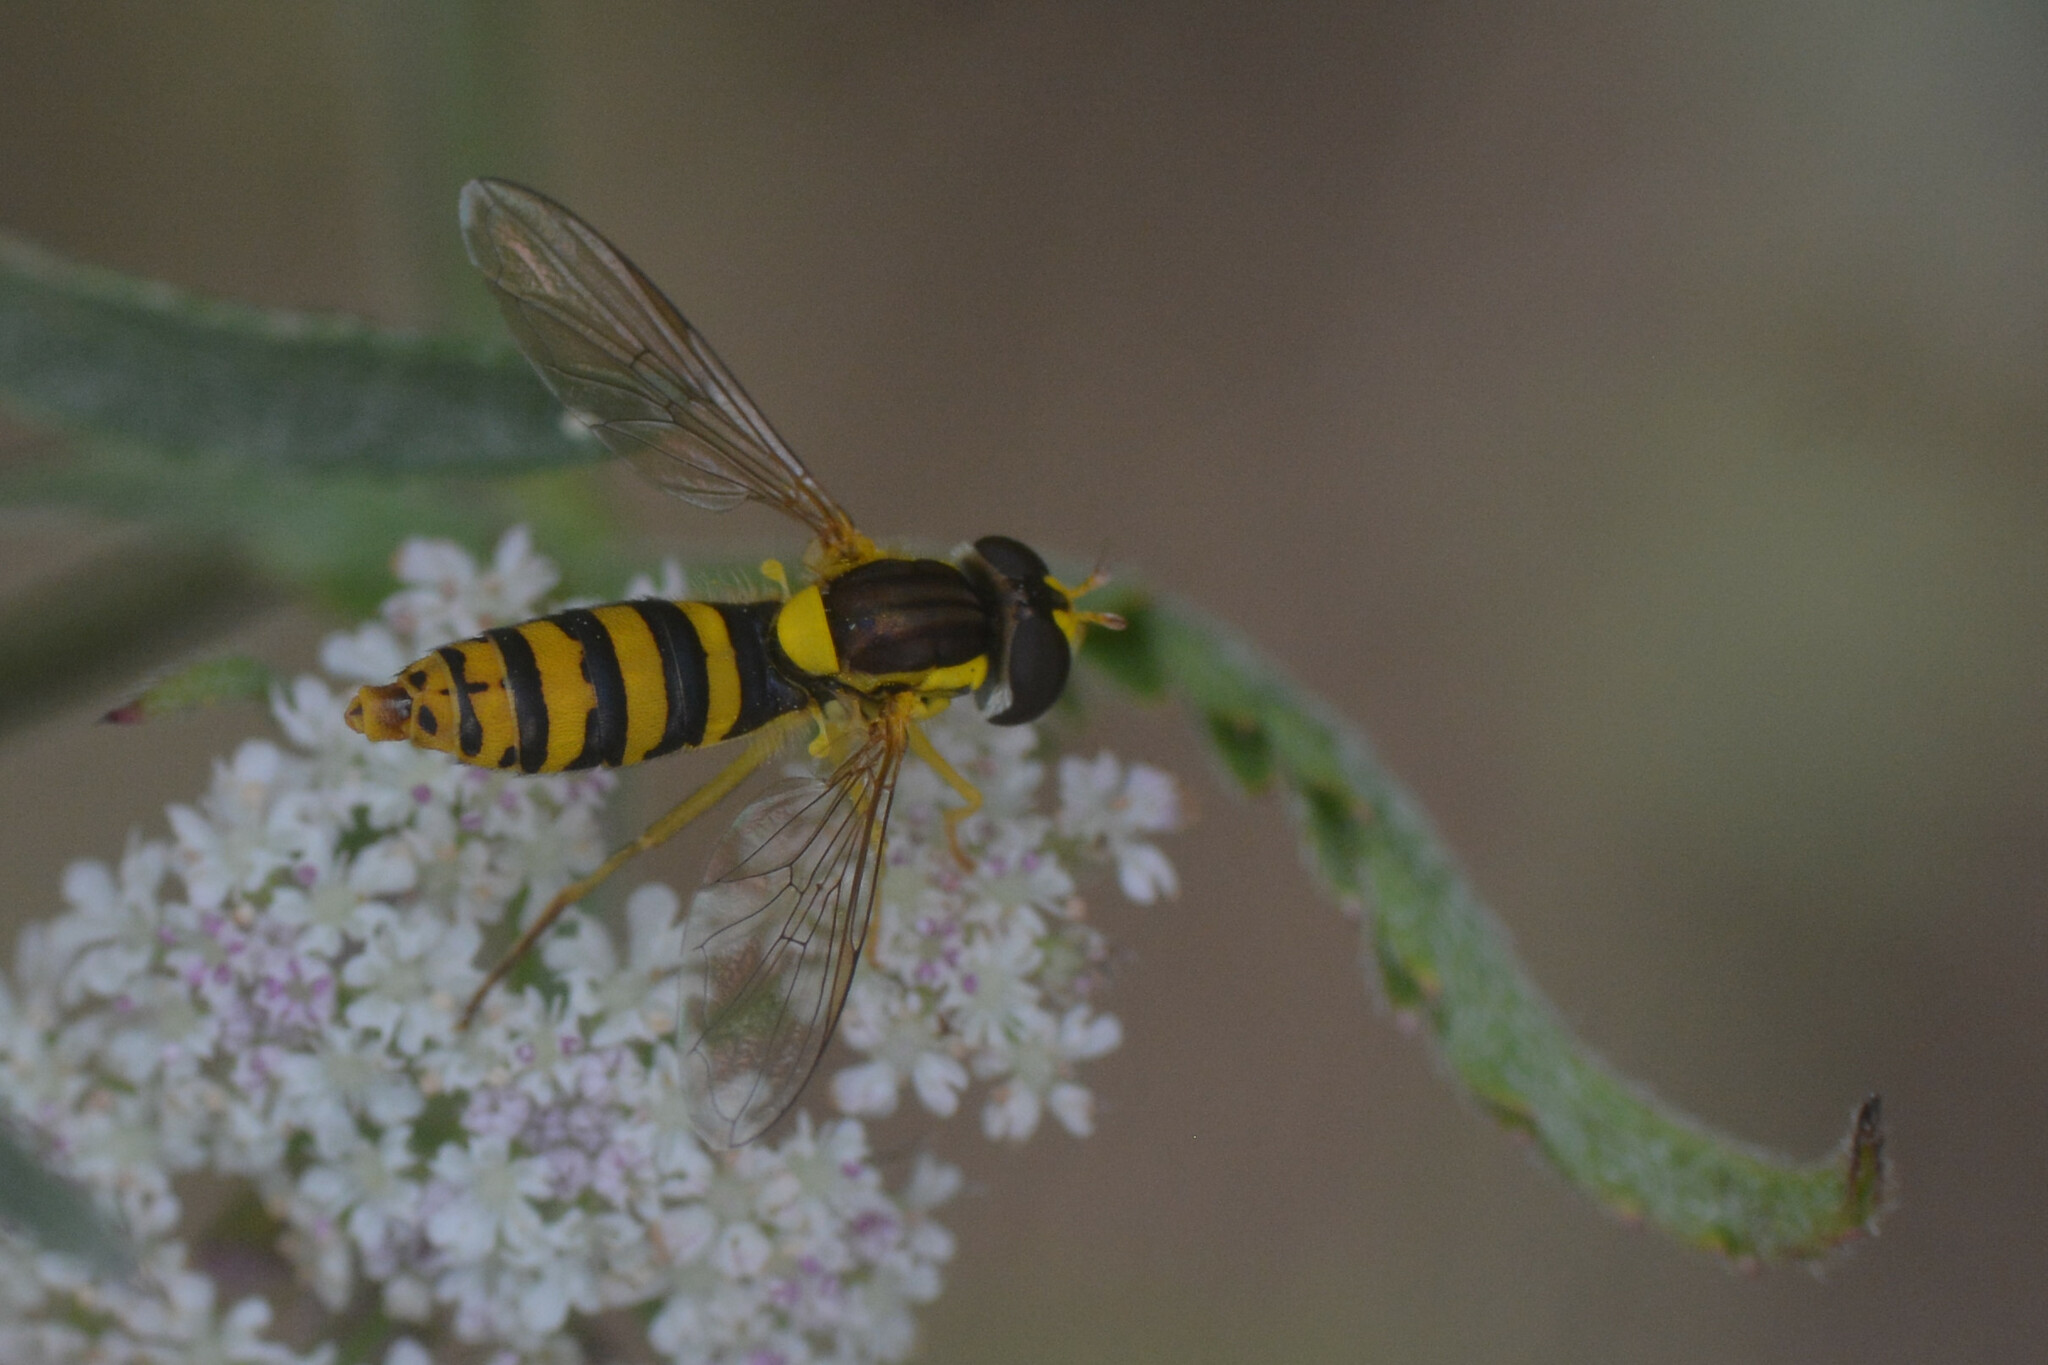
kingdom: Animalia
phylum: Arthropoda
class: Insecta
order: Diptera
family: Syrphidae
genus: Sphaerophoria
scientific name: Sphaerophoria
